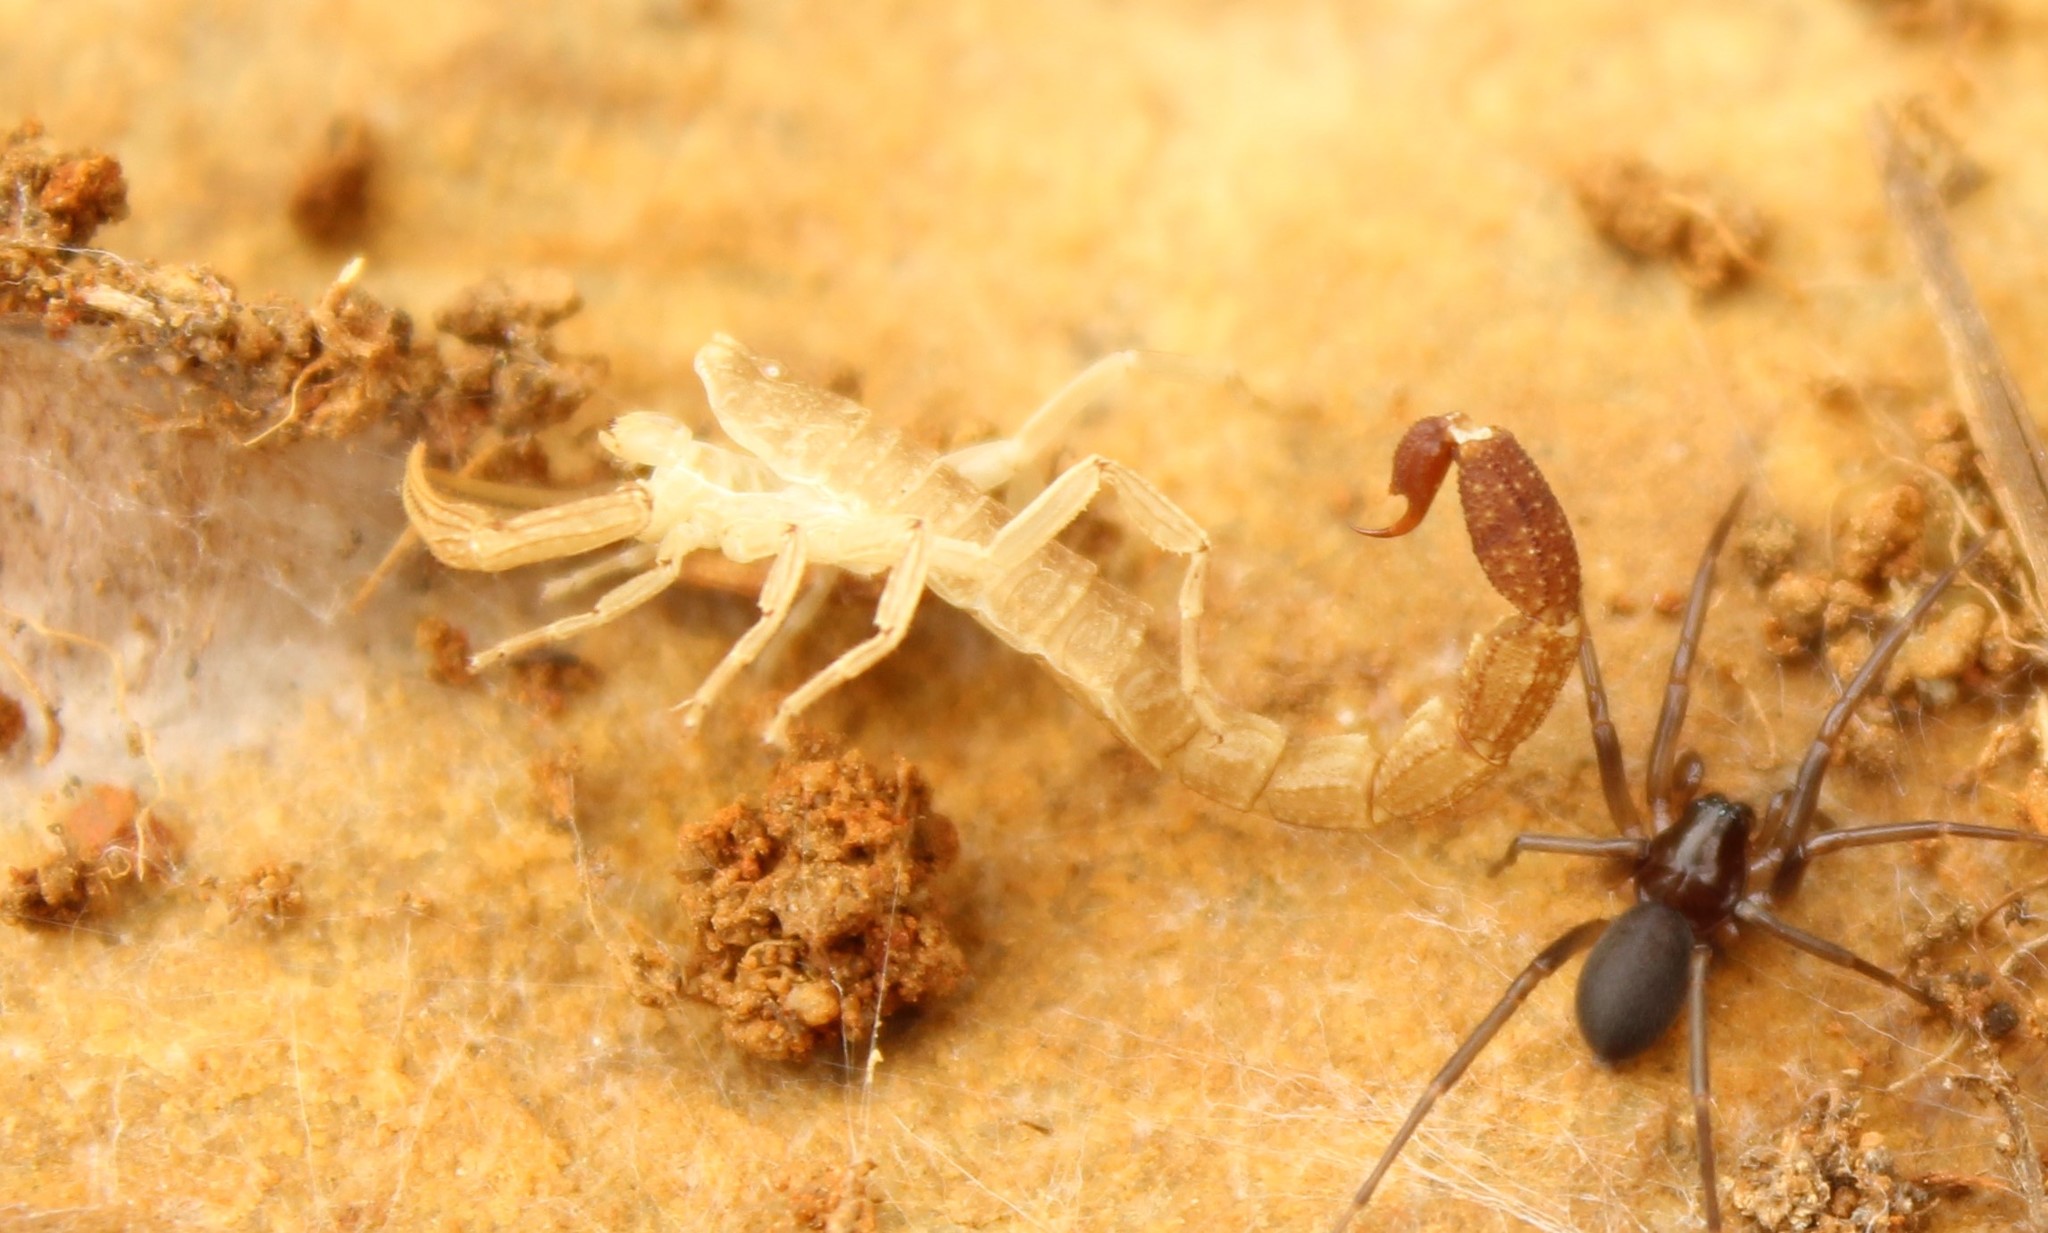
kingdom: Animalia
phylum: Arthropoda
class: Arachnida
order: Scorpiones
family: Buthidae
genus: Tityus
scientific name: Tityus columbianus
